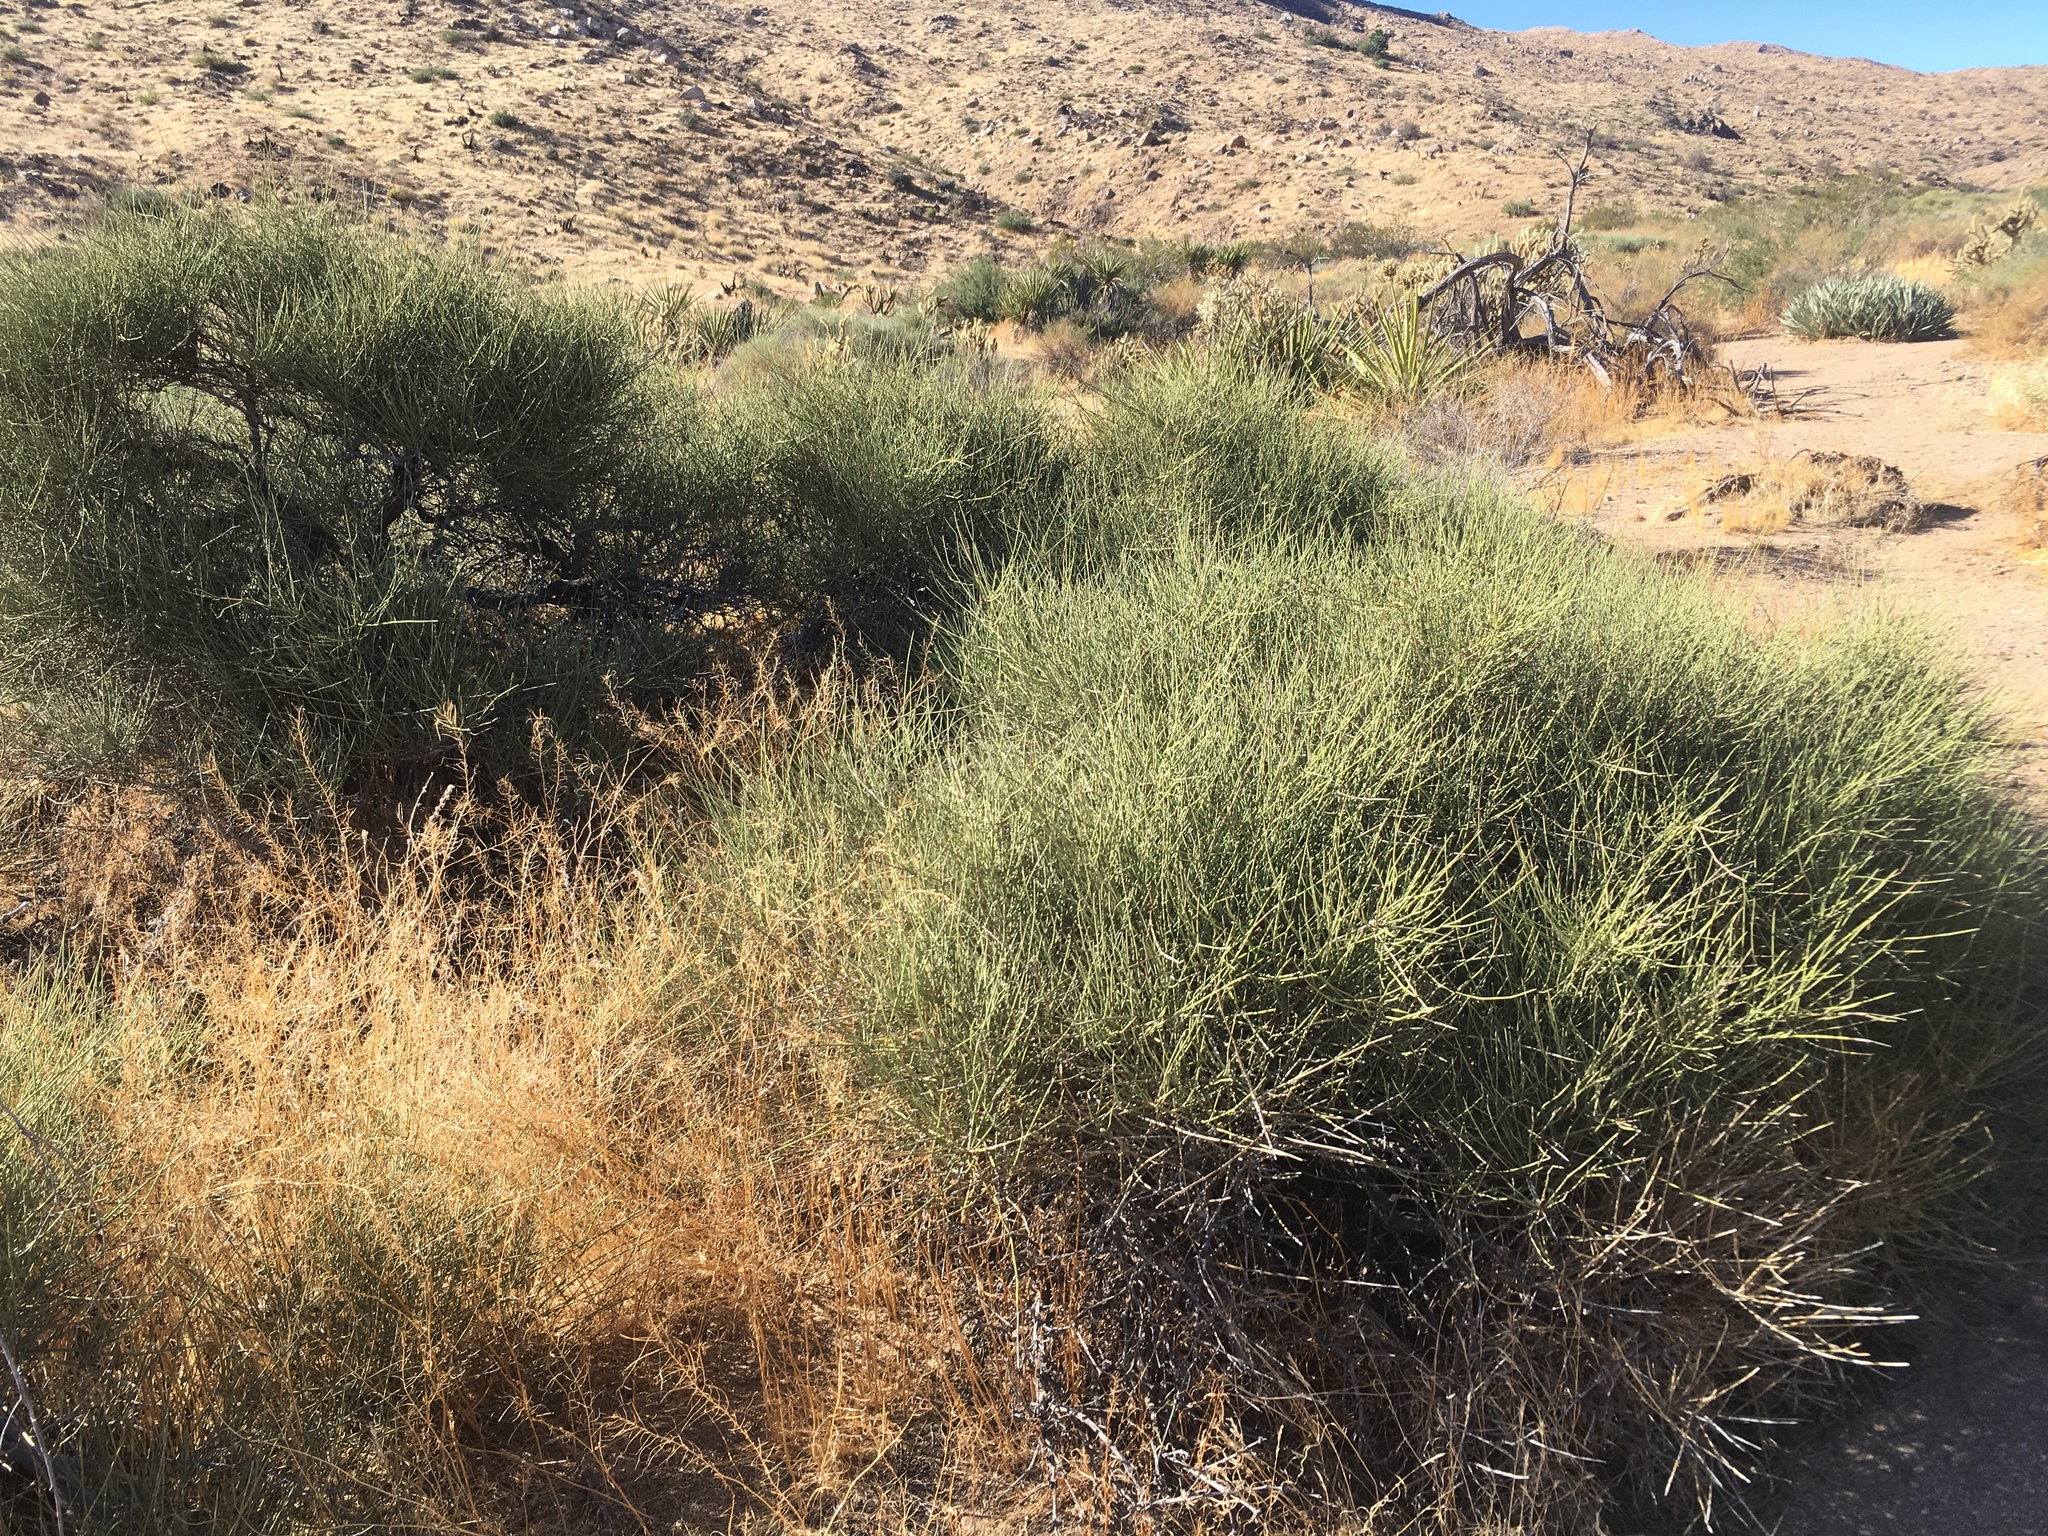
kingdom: Plantae
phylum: Tracheophyta
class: Gnetopsida
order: Ephedrales
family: Ephedraceae
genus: Ephedra
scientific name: Ephedra californica
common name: California ephedra
